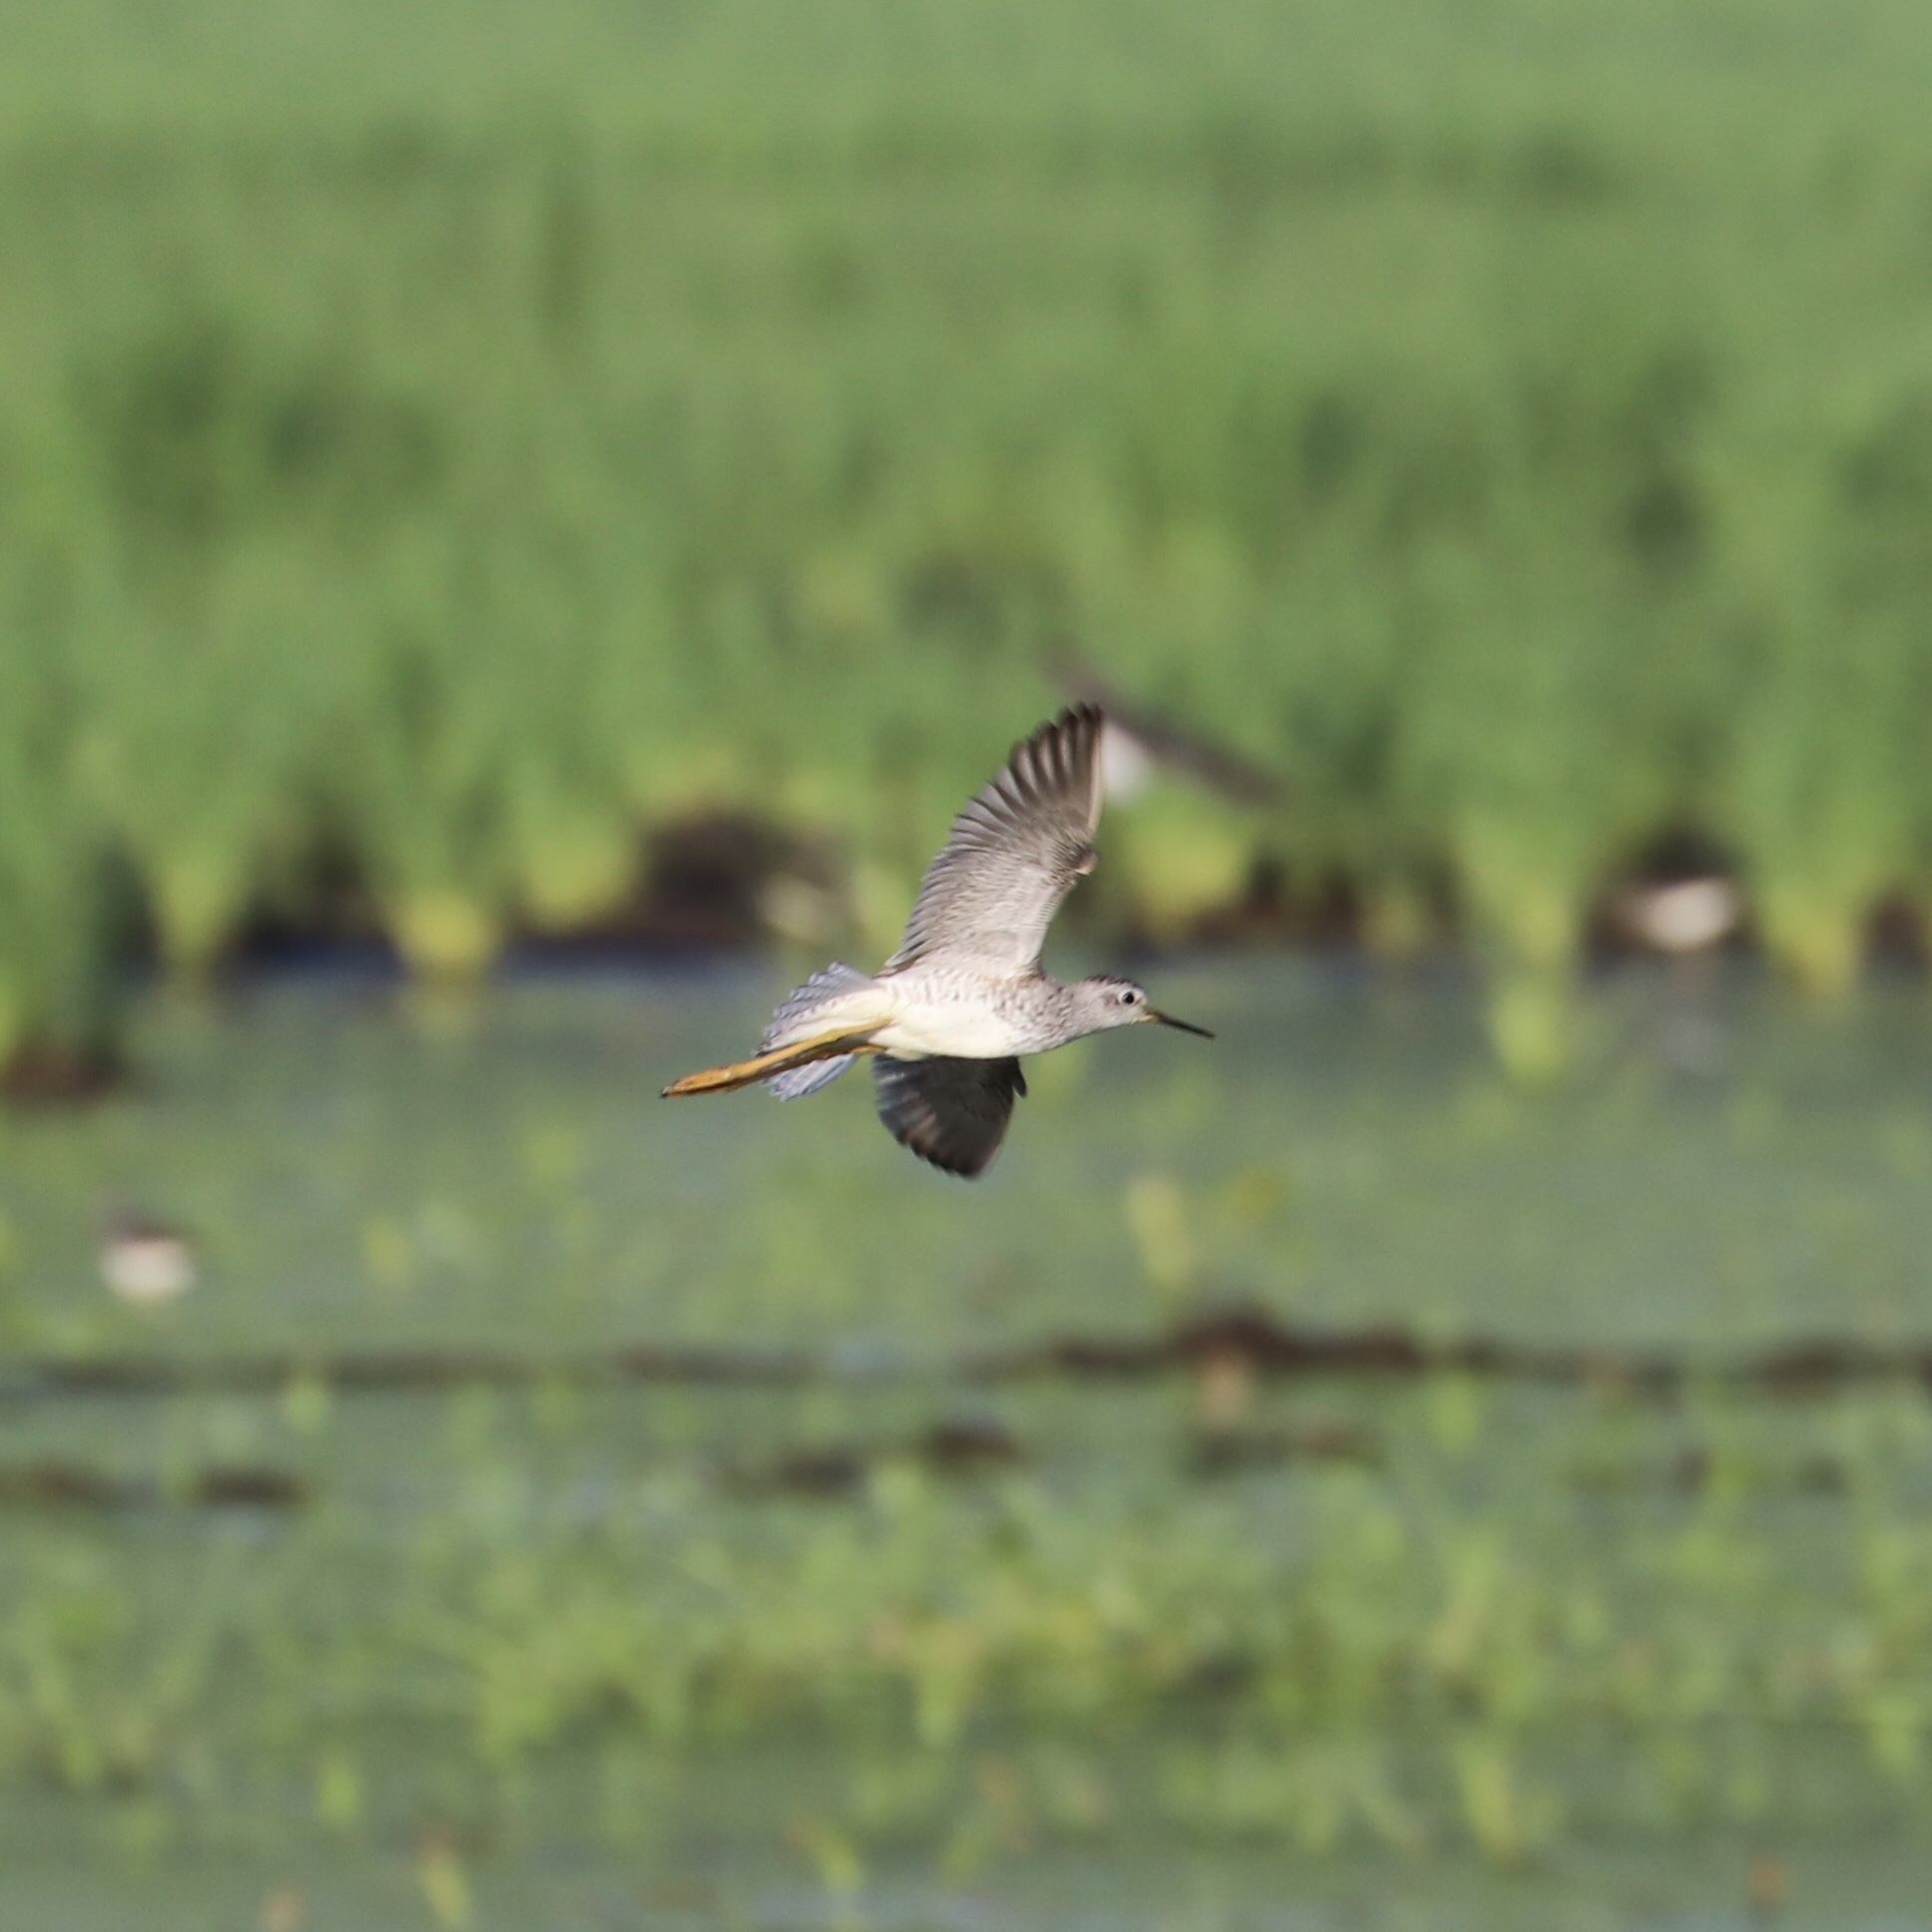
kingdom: Animalia
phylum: Chordata
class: Aves
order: Charadriiformes
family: Scolopacidae
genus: Tringa
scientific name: Tringa flavipes
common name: Lesser yellowlegs
